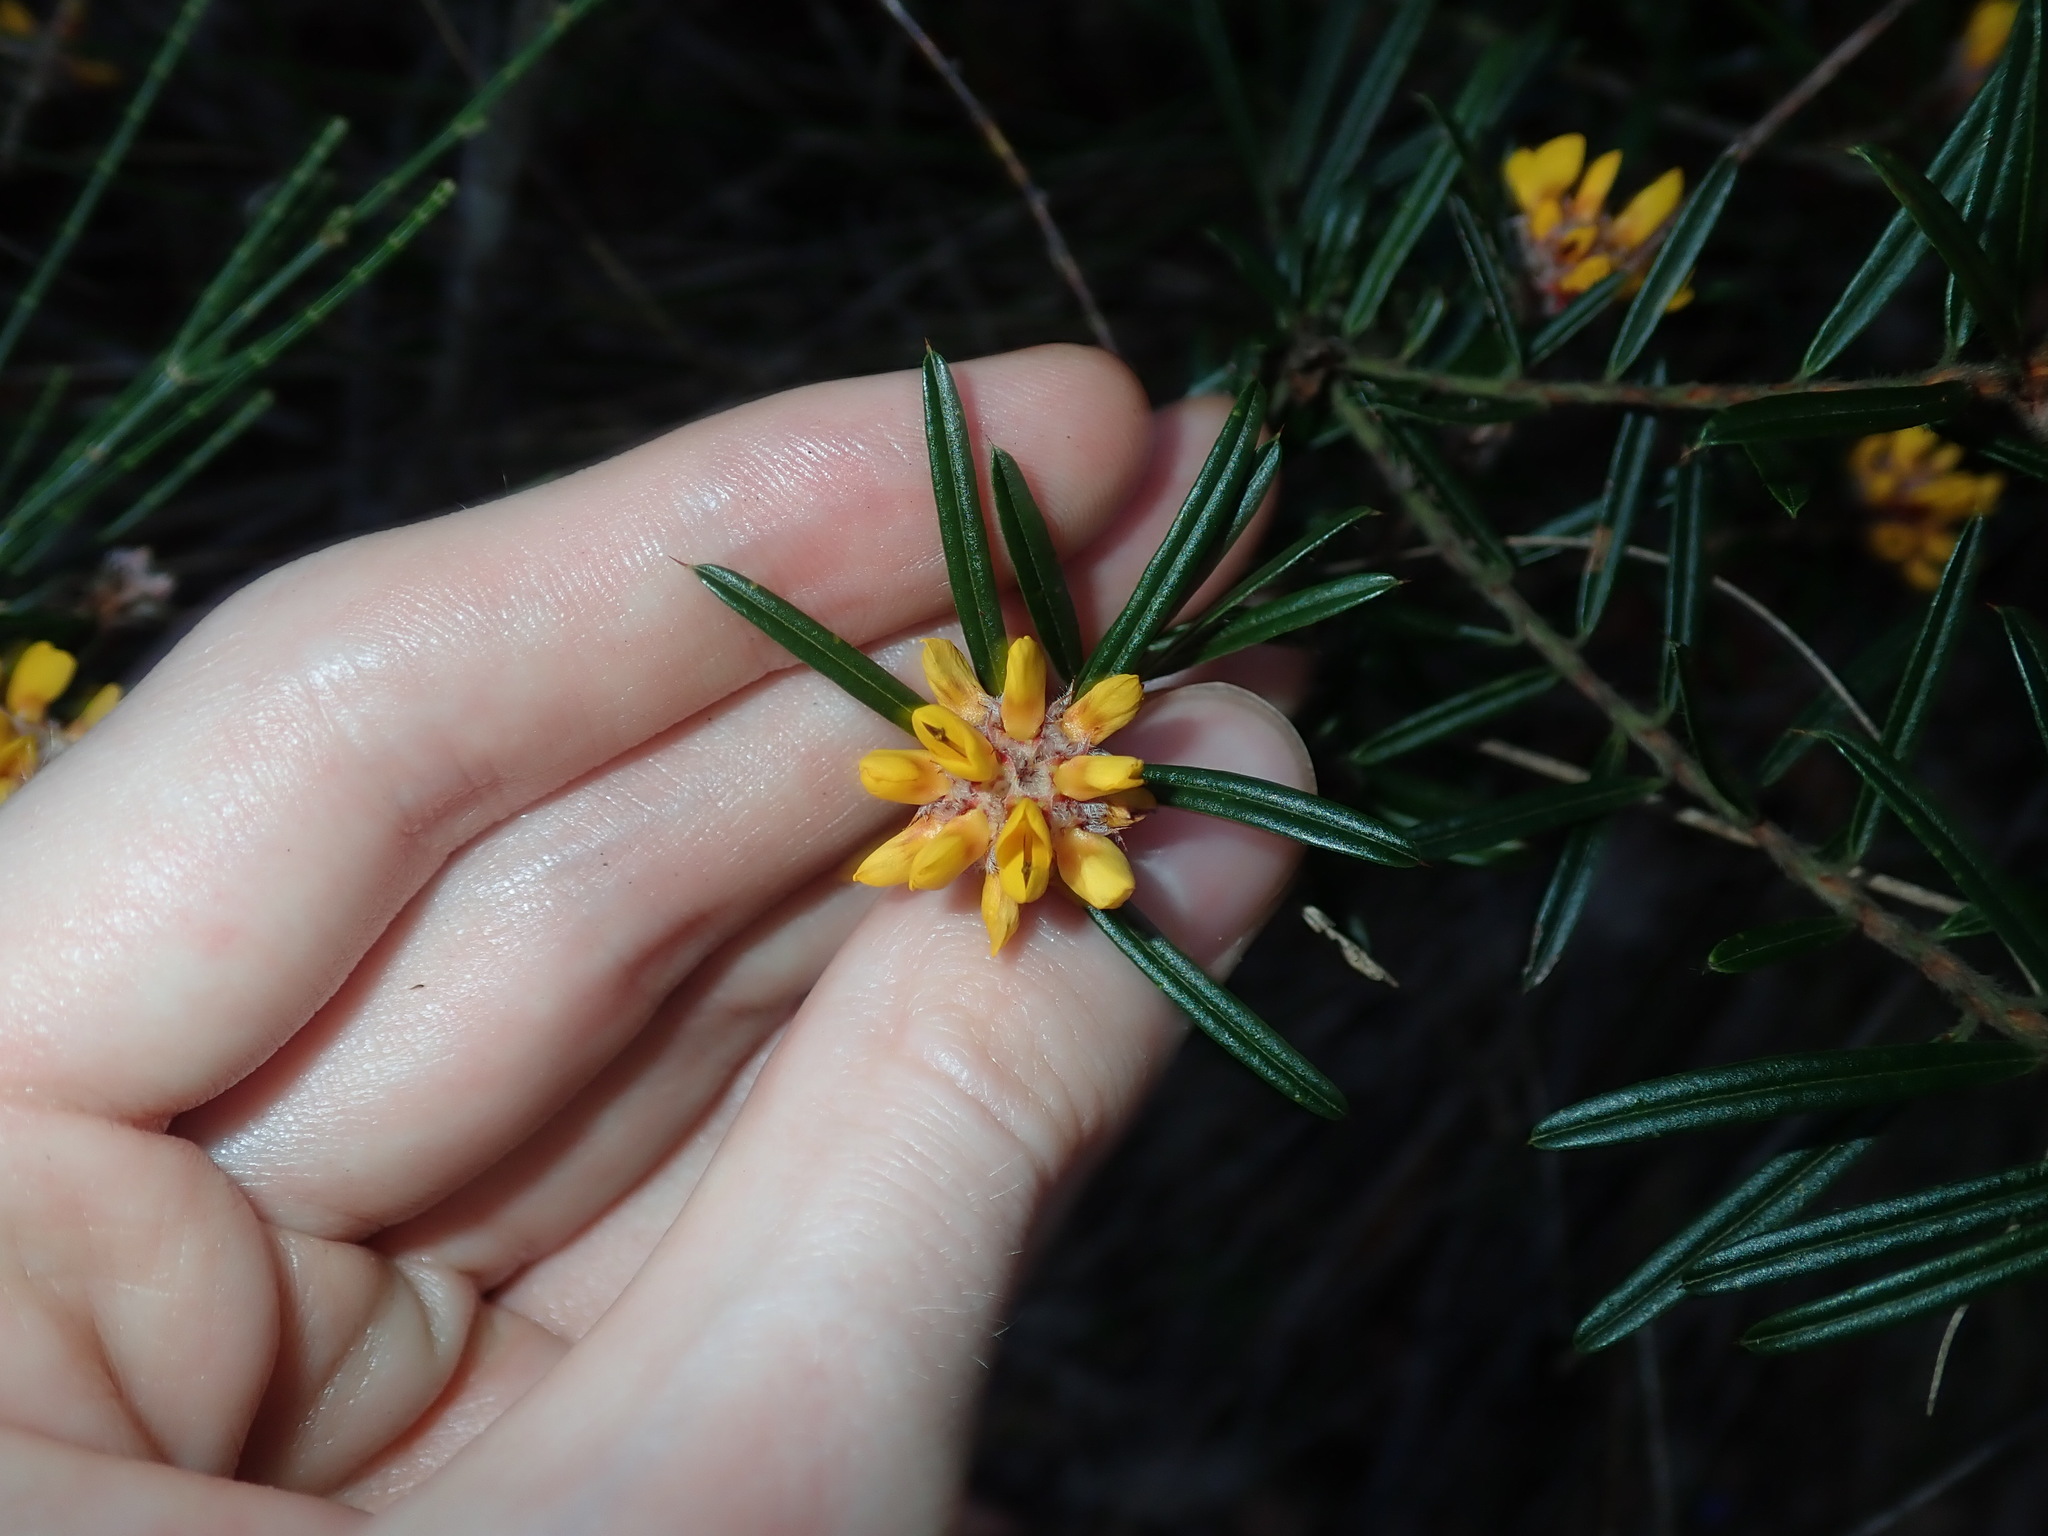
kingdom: Plantae
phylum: Tracheophyta
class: Magnoliopsida
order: Fabales
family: Fabaceae
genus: Pultenaea
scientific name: Pultenaea polifolia
